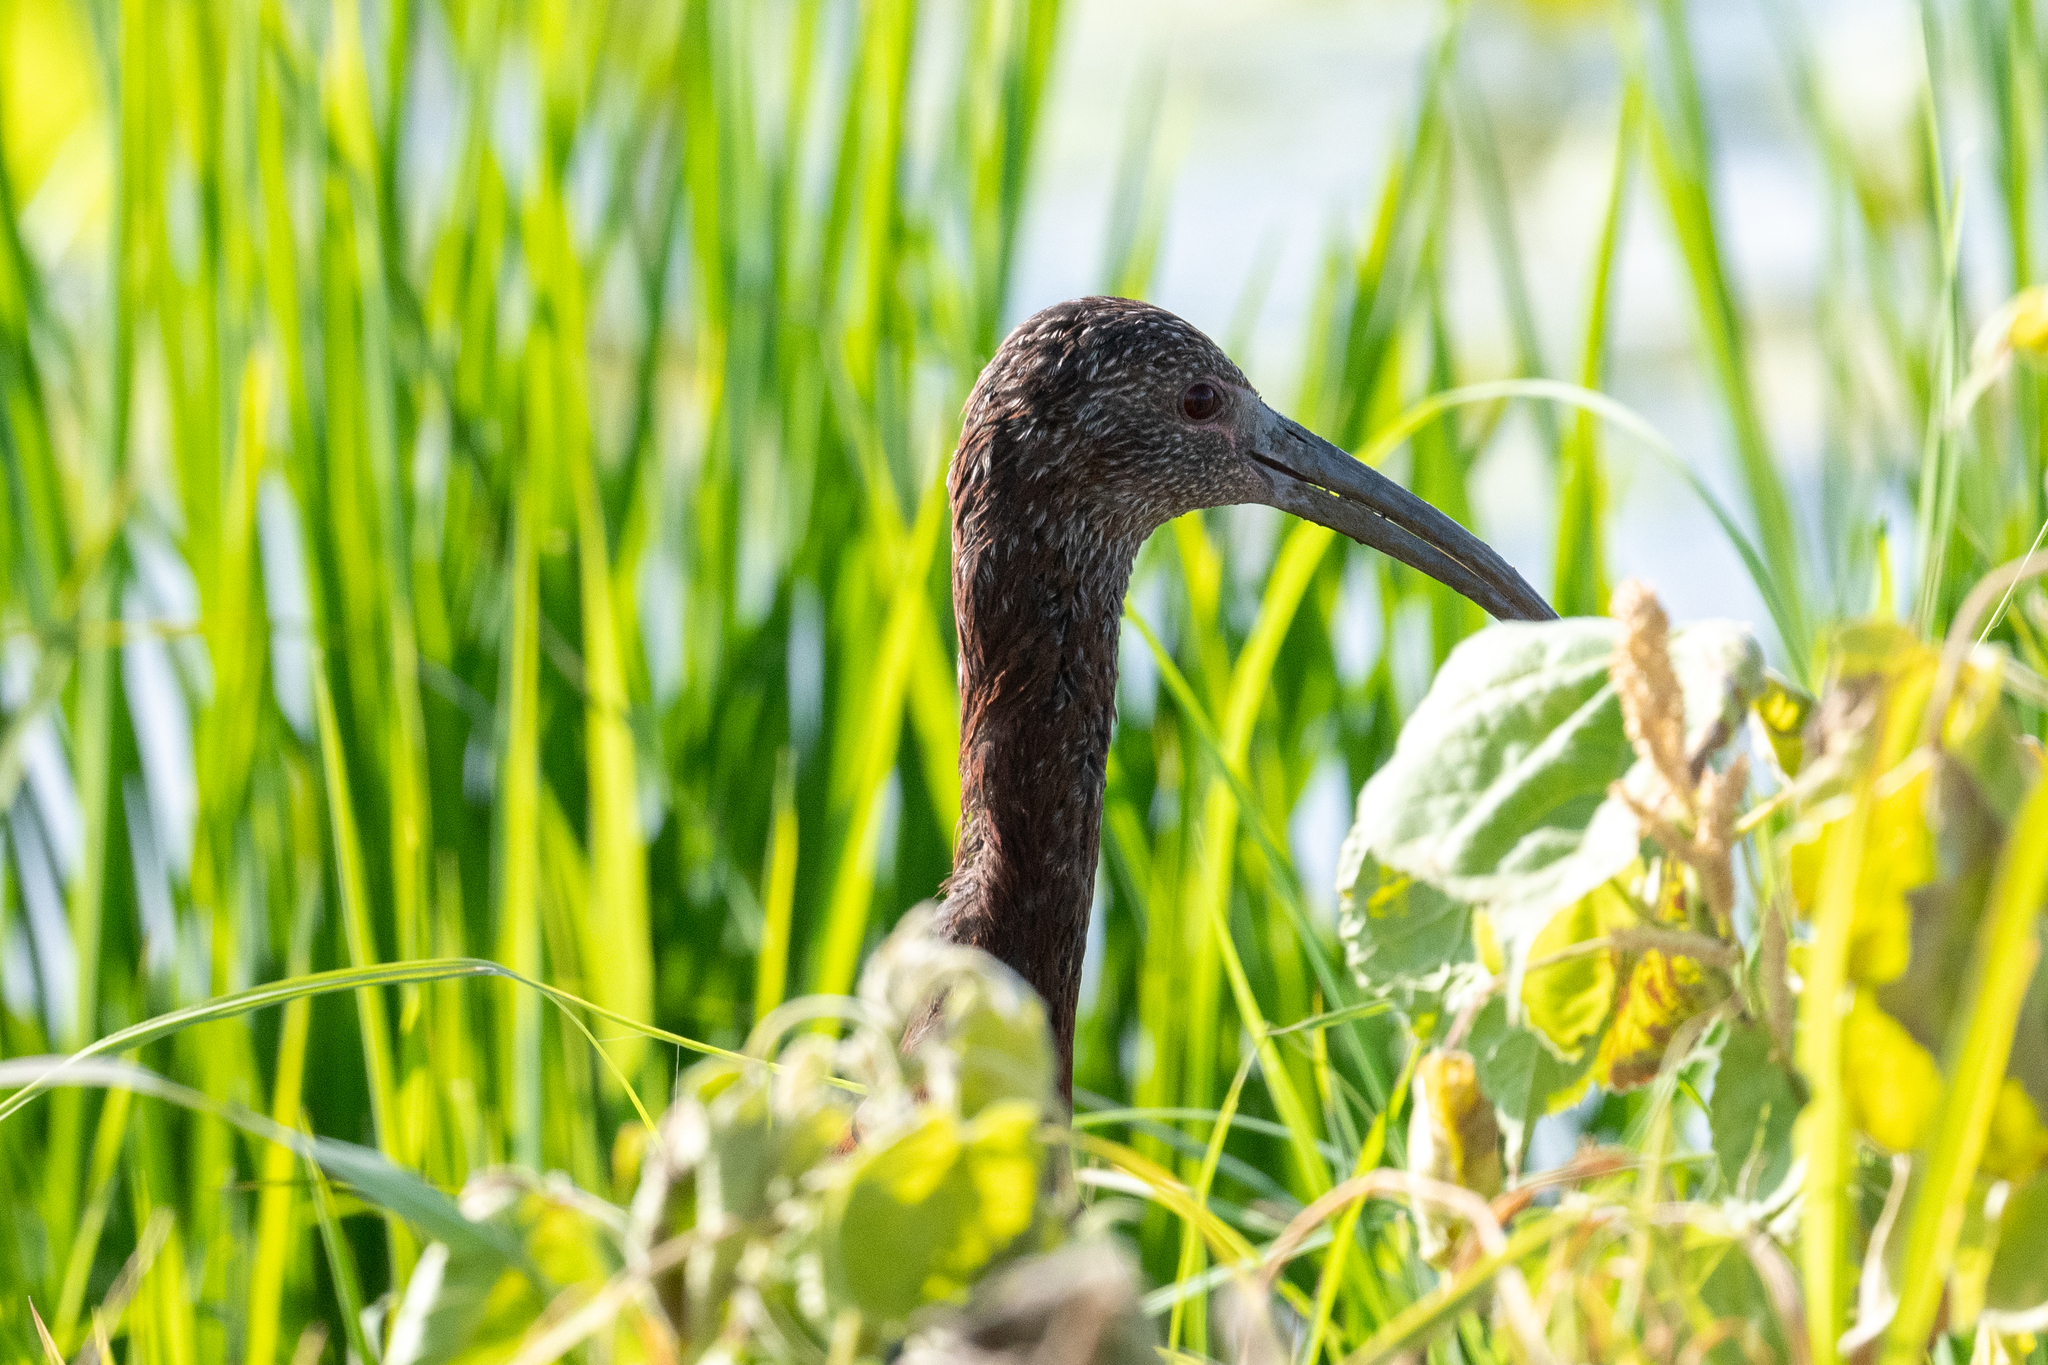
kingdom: Animalia
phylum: Chordata
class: Aves
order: Pelecaniformes
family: Threskiornithidae
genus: Plegadis
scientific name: Plegadis chihi
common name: White-faced ibis
